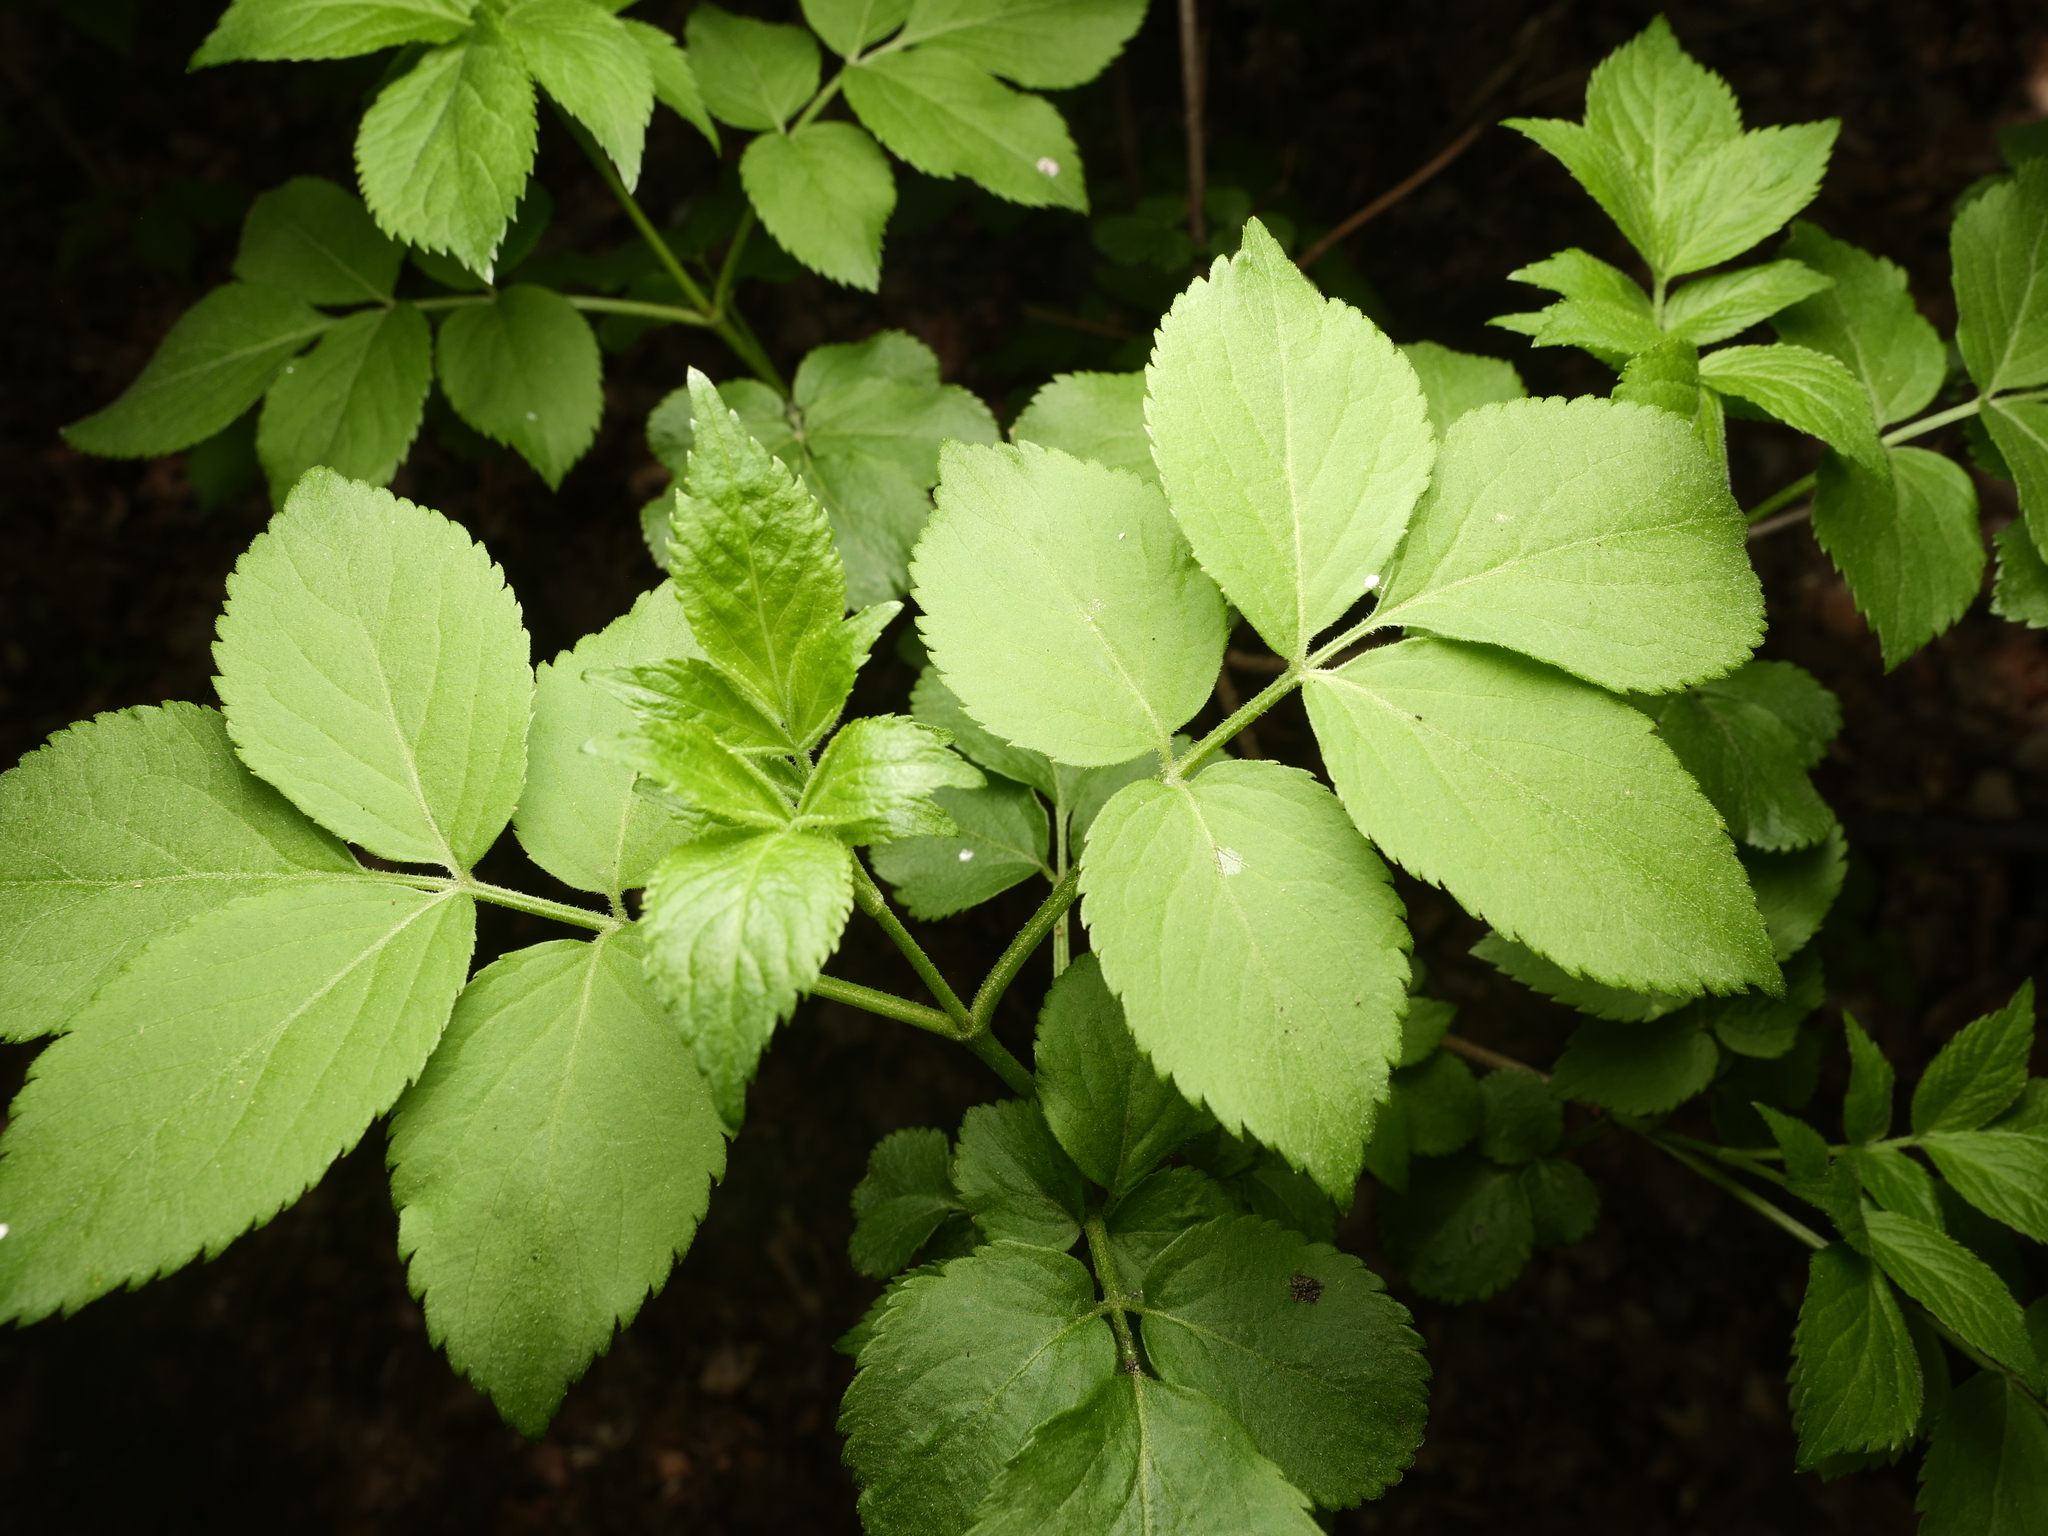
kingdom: Plantae
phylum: Tracheophyta
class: Magnoliopsida
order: Dipsacales
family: Viburnaceae
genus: Sambucus
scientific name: Sambucus nigra
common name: Elder
